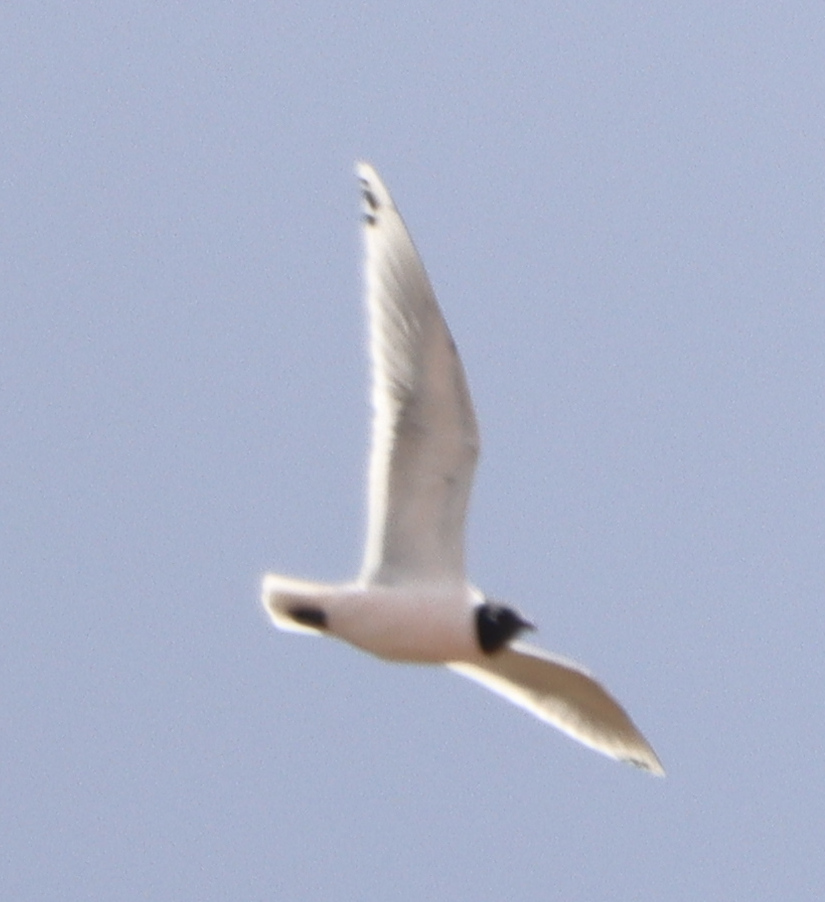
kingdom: Animalia
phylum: Chordata
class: Aves
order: Charadriiformes
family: Laridae
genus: Leucophaeus
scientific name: Leucophaeus pipixcan
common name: Franklin's gull
